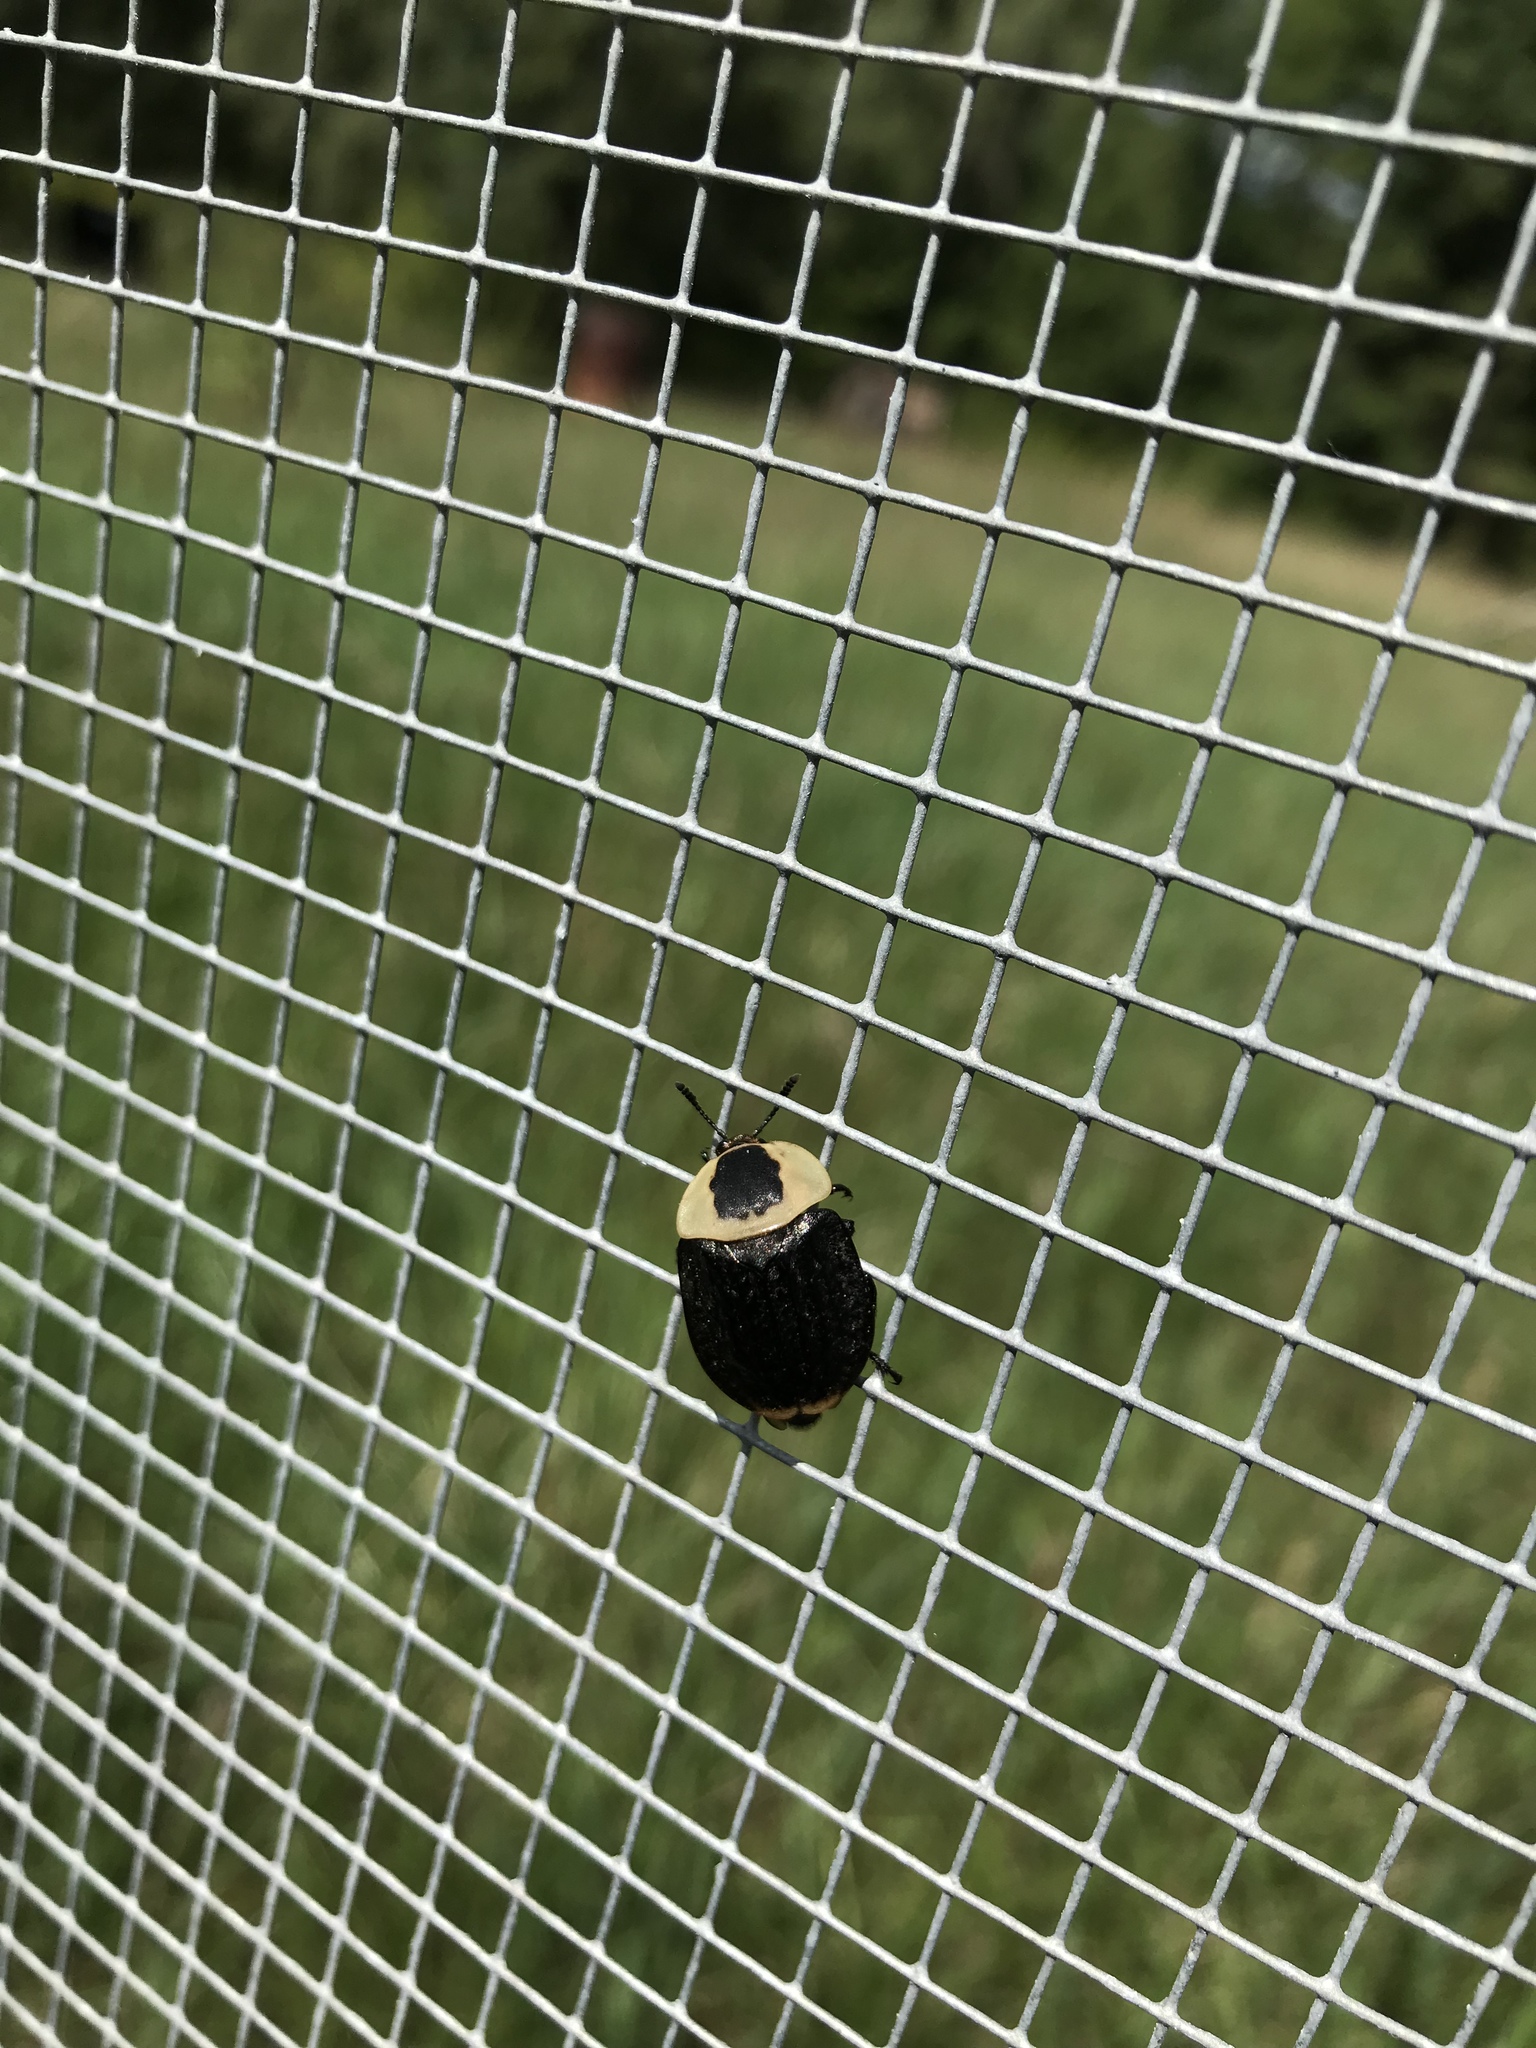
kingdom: Animalia
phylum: Arthropoda
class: Insecta
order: Coleoptera
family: Staphylinidae
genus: Necrophila
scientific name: Necrophila americana
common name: American carrion beetle
